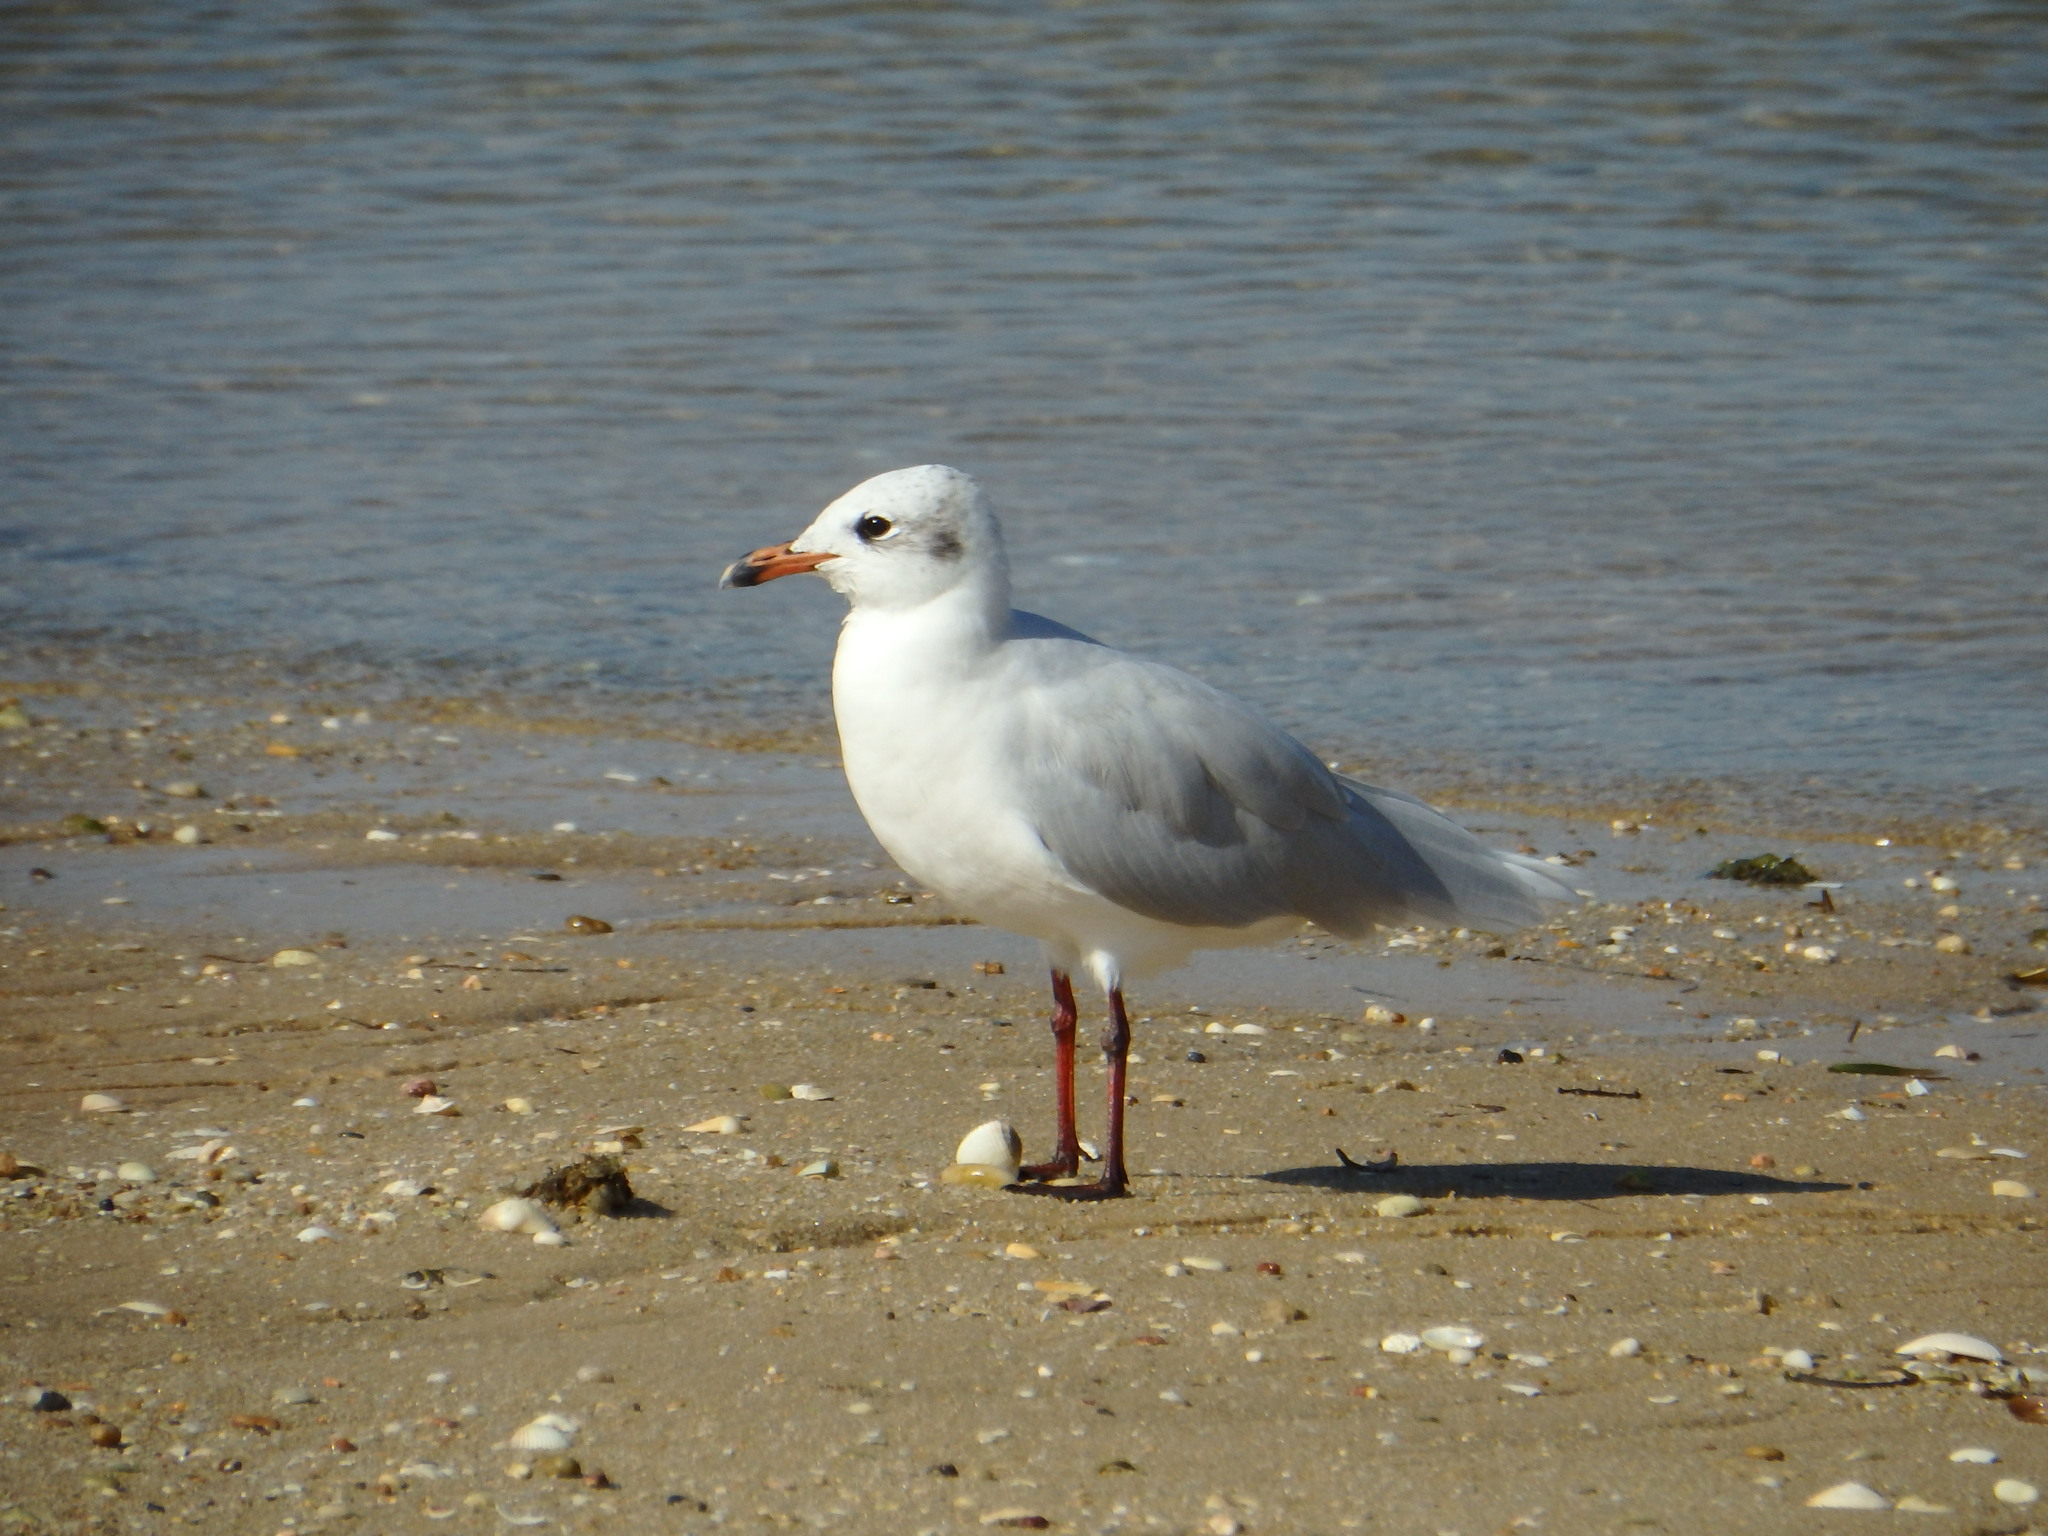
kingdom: Animalia
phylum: Chordata
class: Aves
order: Charadriiformes
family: Laridae
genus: Ichthyaetus
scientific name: Ichthyaetus melanocephalus
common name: Mediterranean gull
